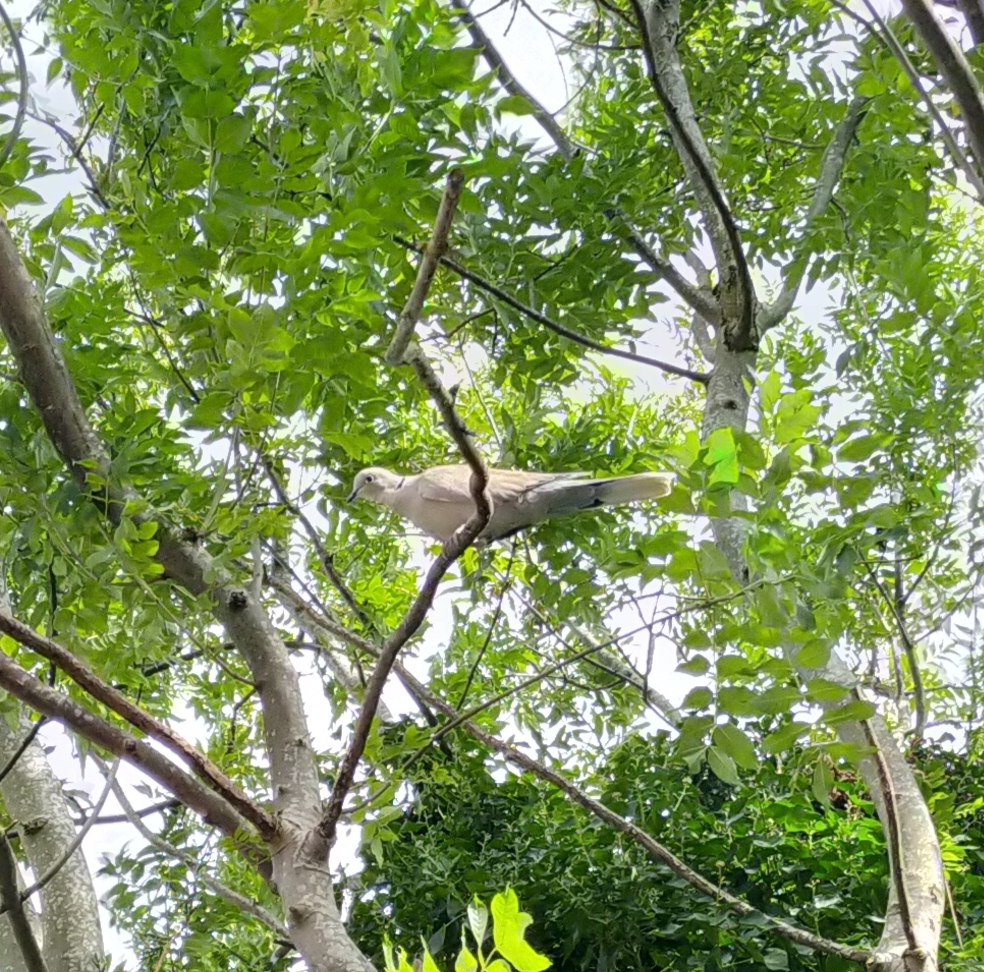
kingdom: Animalia
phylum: Chordata
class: Aves
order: Columbiformes
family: Columbidae
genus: Streptopelia
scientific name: Streptopelia decaocto
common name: Eurasian collared dove
